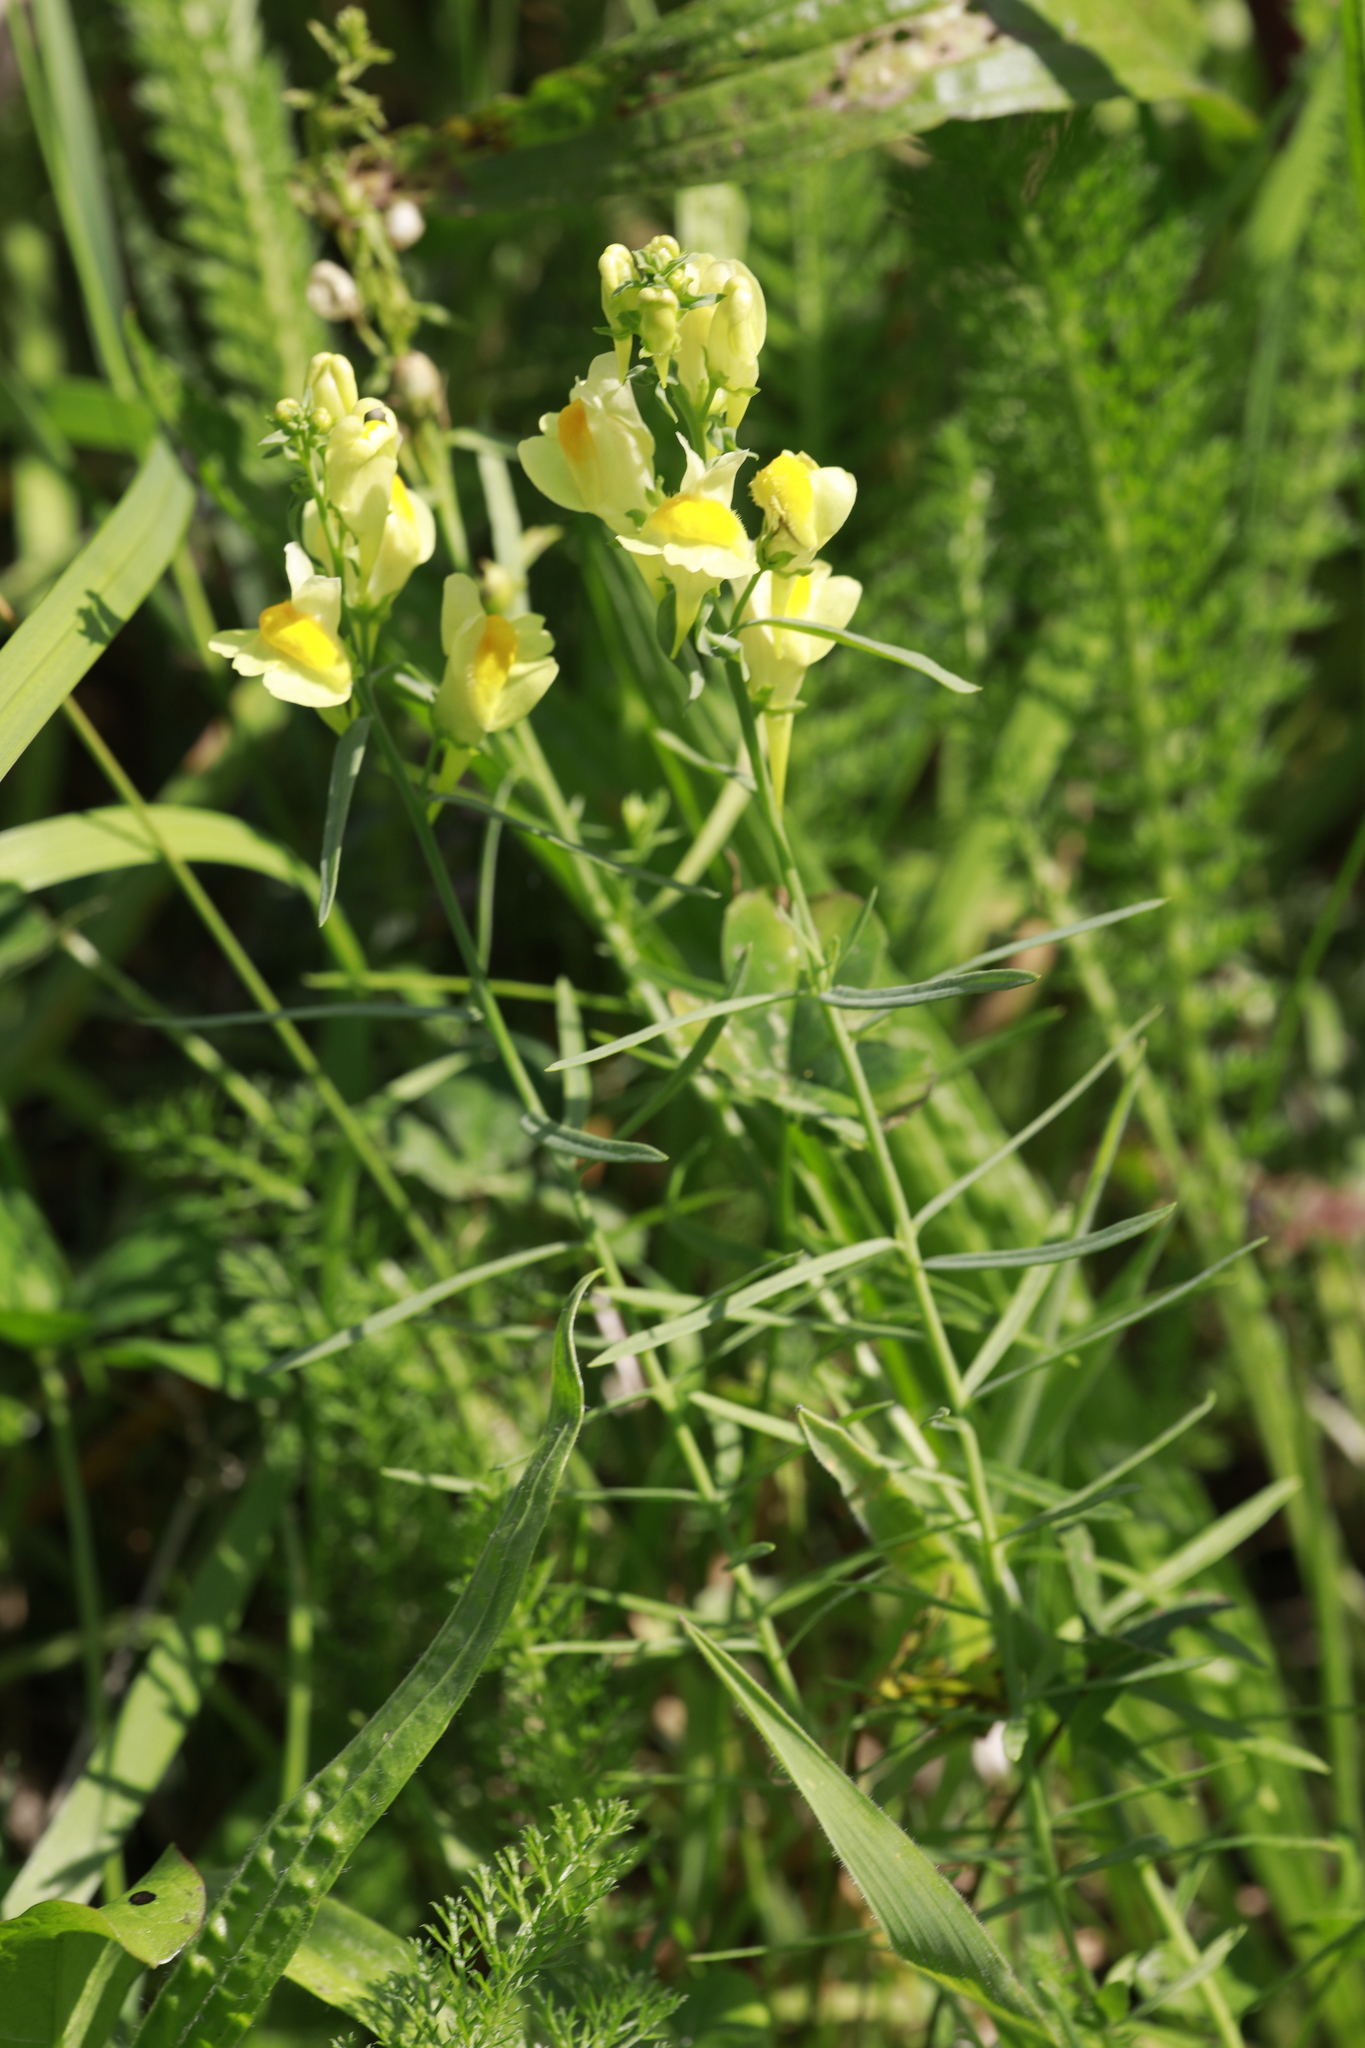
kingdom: Plantae
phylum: Tracheophyta
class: Magnoliopsida
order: Lamiales
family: Plantaginaceae
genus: Linaria
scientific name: Linaria vulgaris
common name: Butter and eggs
